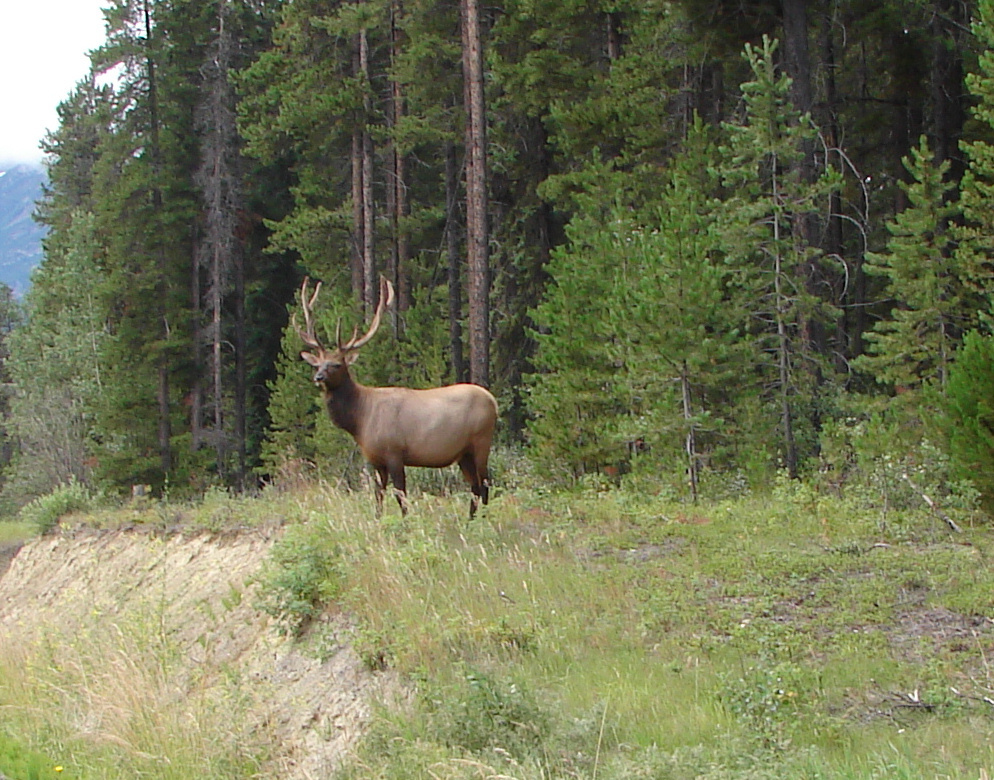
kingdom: Animalia
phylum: Chordata
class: Mammalia
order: Artiodactyla
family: Cervidae
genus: Cervus
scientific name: Cervus elaphus
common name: Red deer
